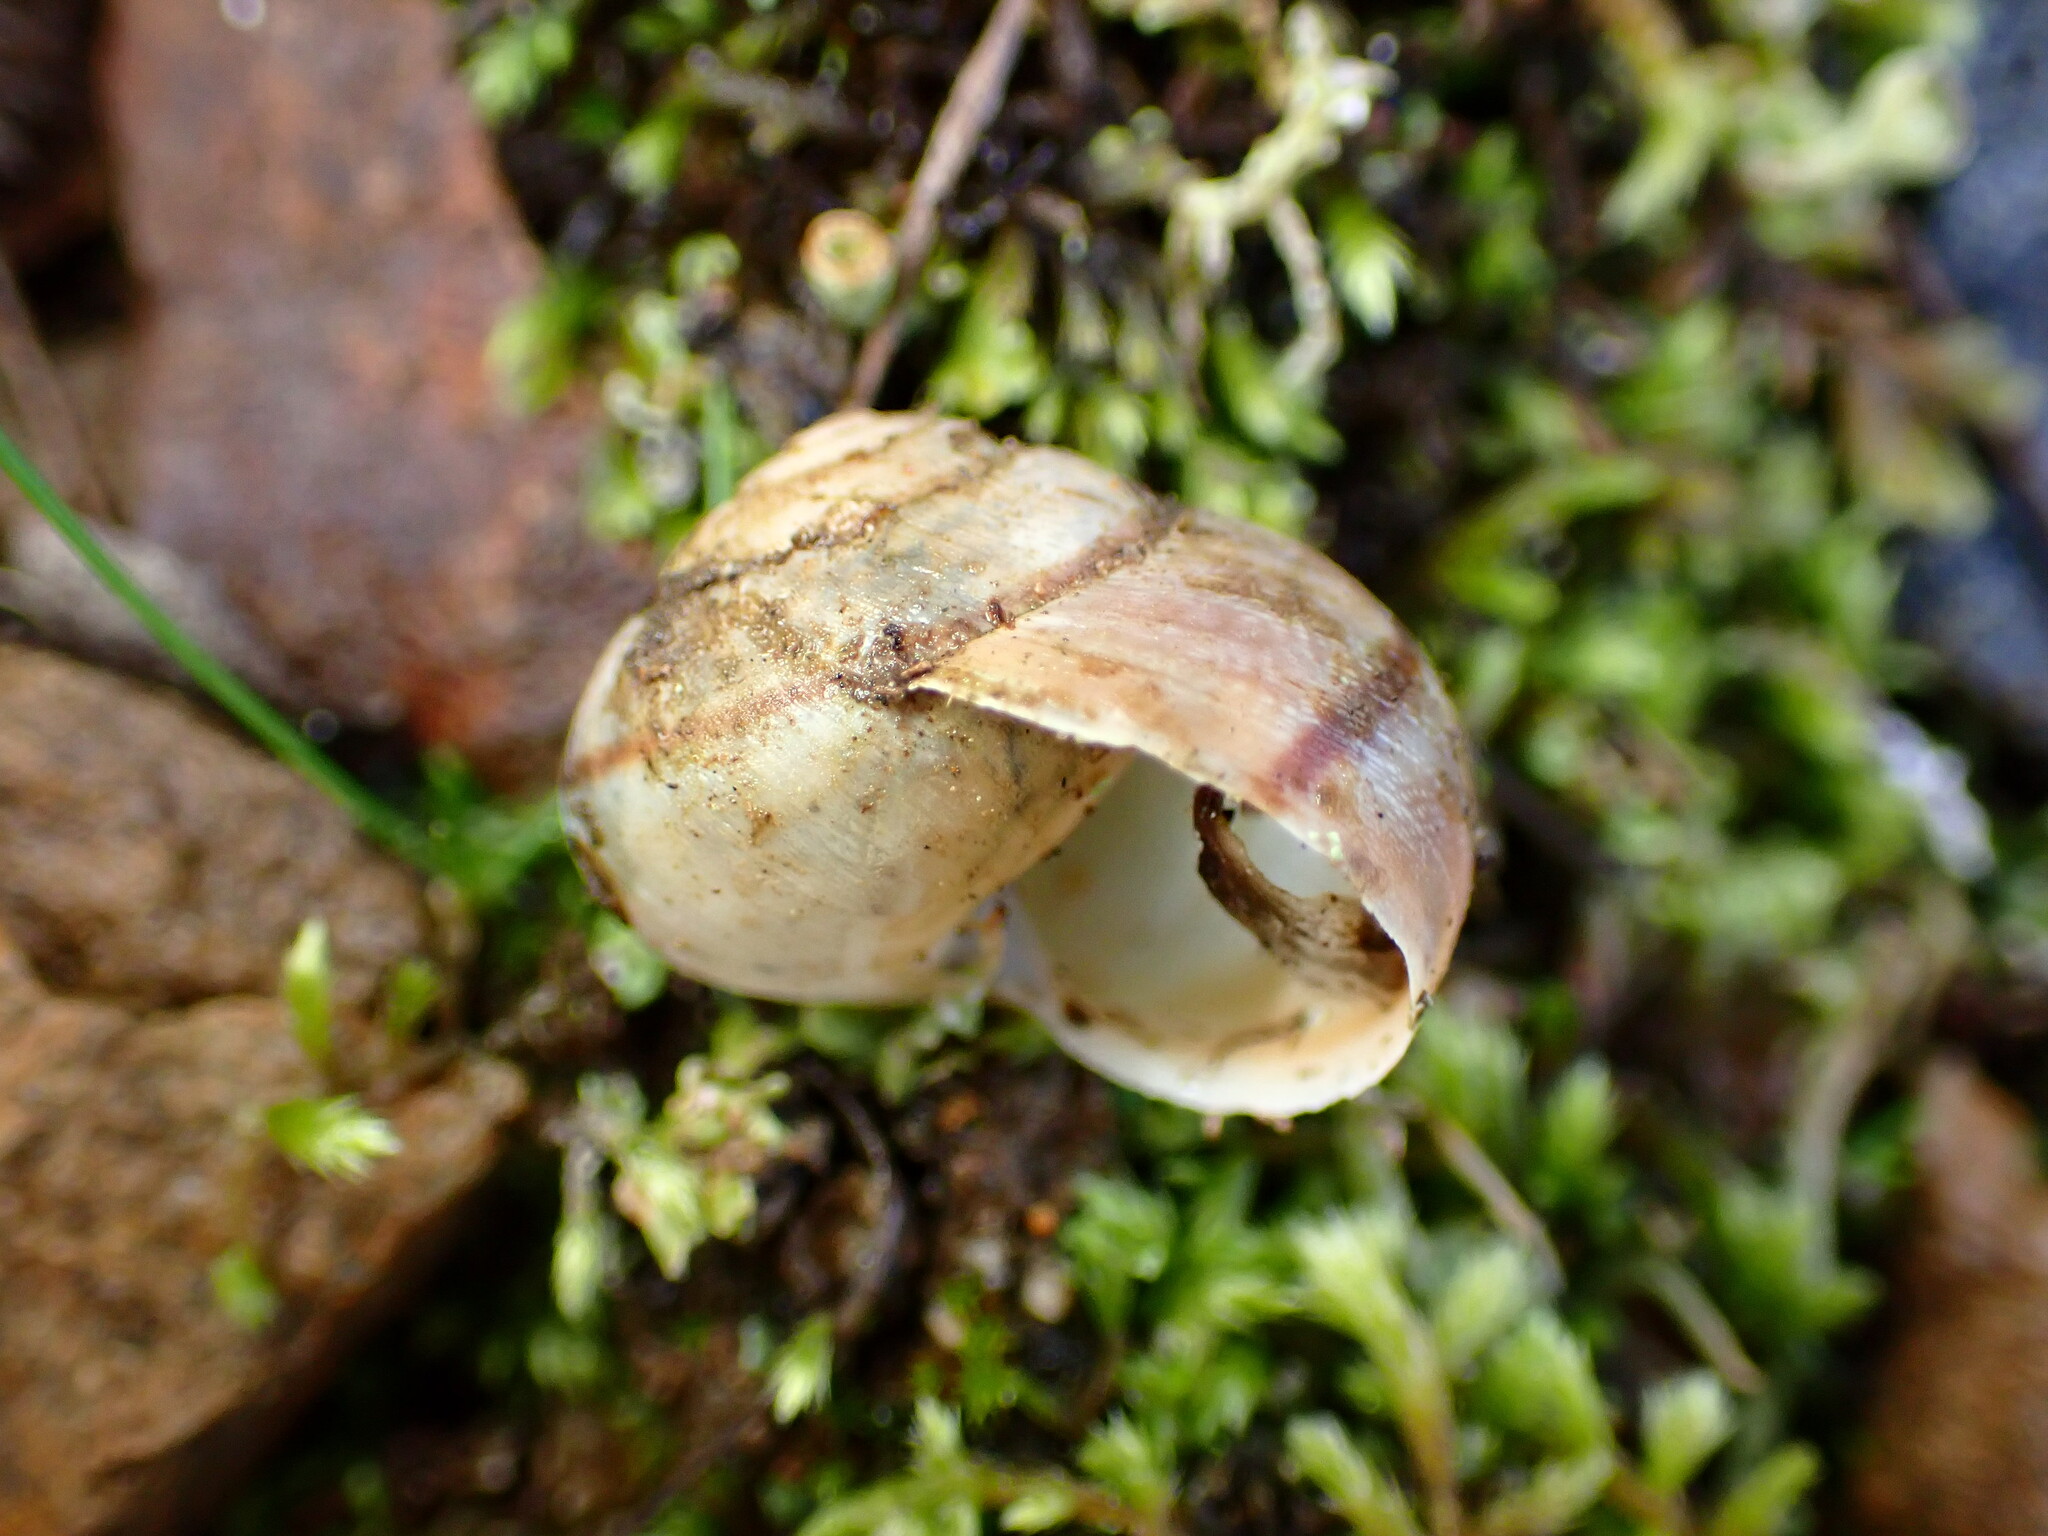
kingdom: Animalia
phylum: Mollusca
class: Gastropoda
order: Stylommatophora
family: Xanthonychidae
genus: Helminthoglypta
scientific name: Helminthoglypta nickliniana
